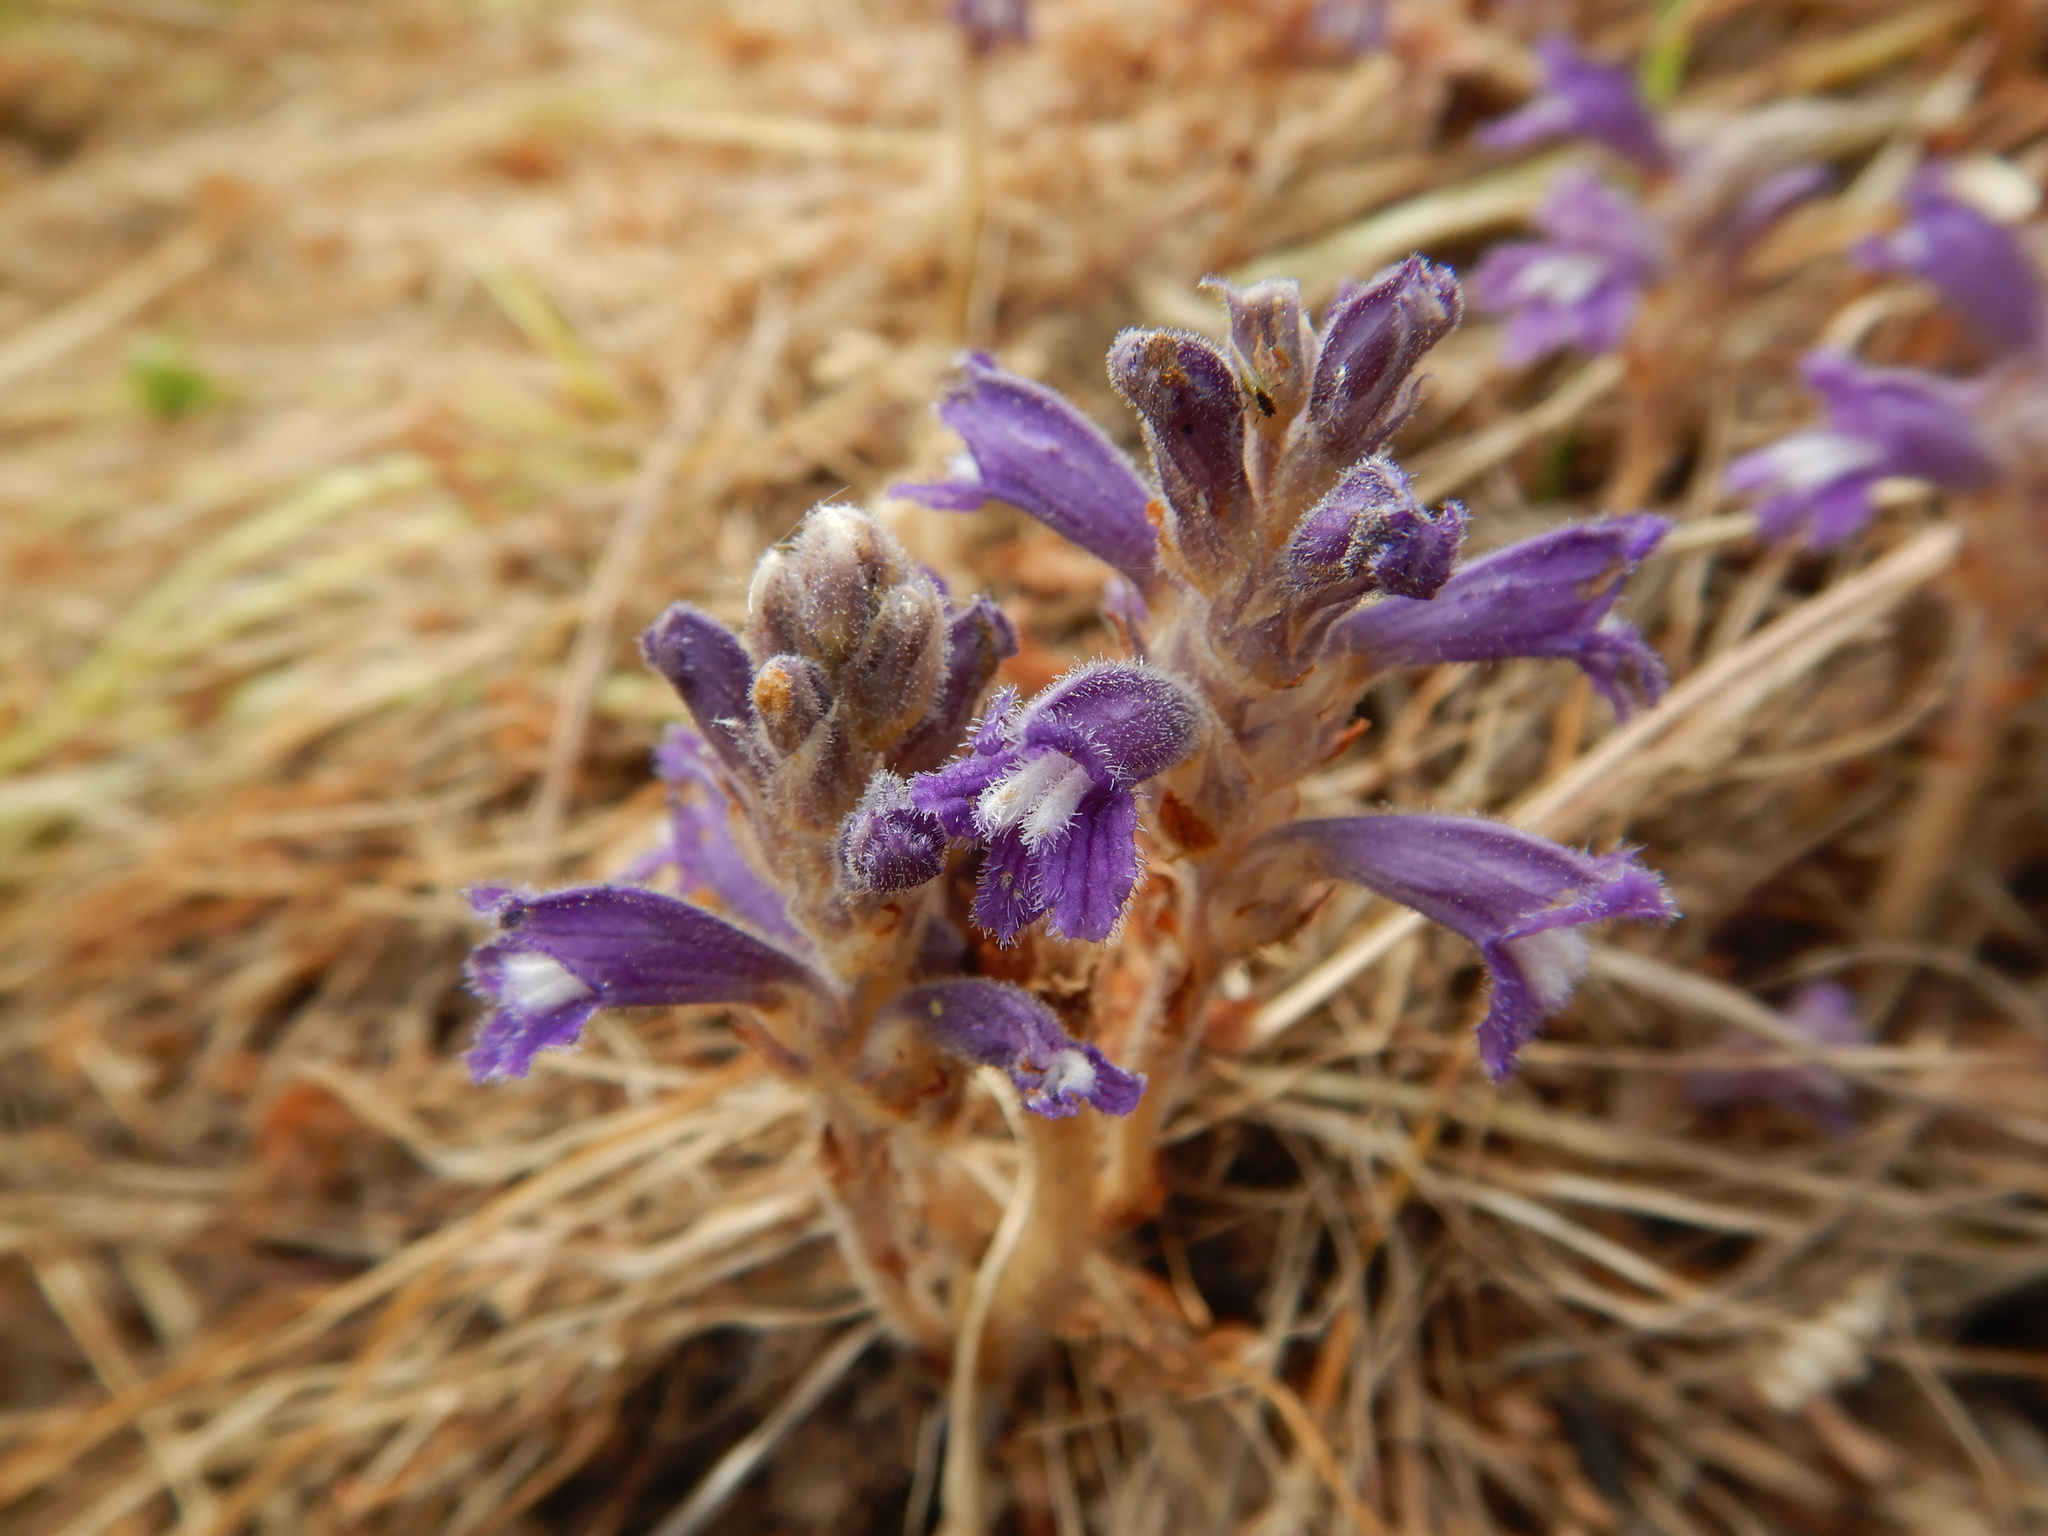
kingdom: Plantae
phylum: Tracheophyta
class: Magnoliopsida
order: Lamiales
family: Orobanchaceae
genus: Phelipanche
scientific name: Phelipanche mutelii
